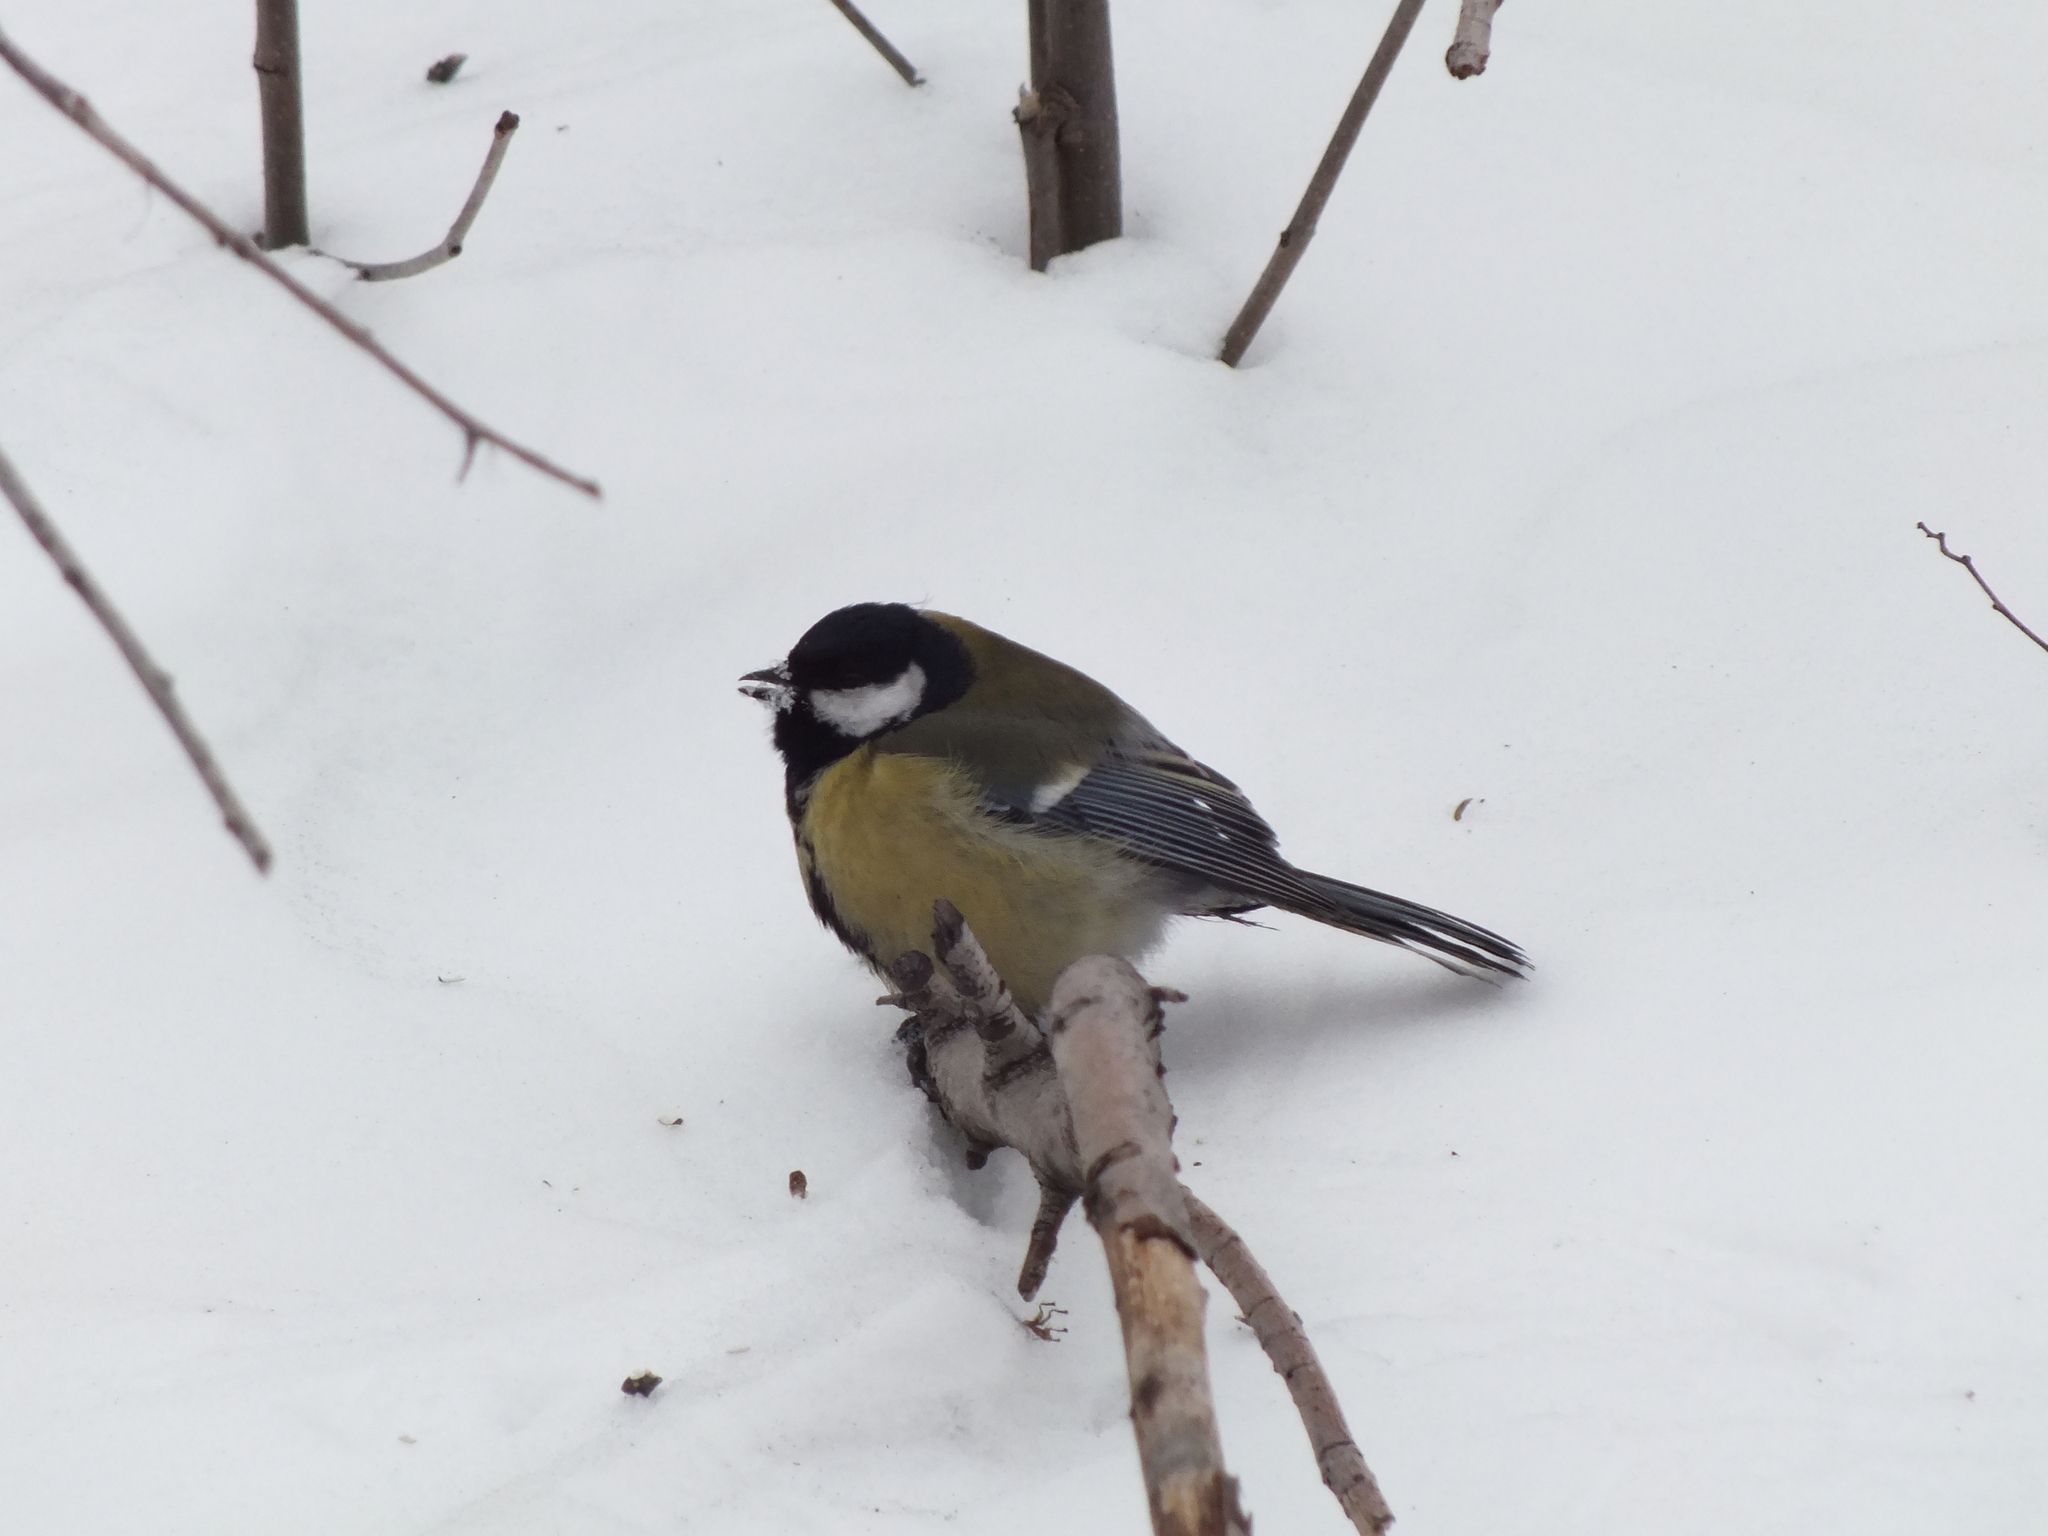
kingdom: Animalia
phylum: Chordata
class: Aves
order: Passeriformes
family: Paridae
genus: Parus
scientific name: Parus major
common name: Great tit
